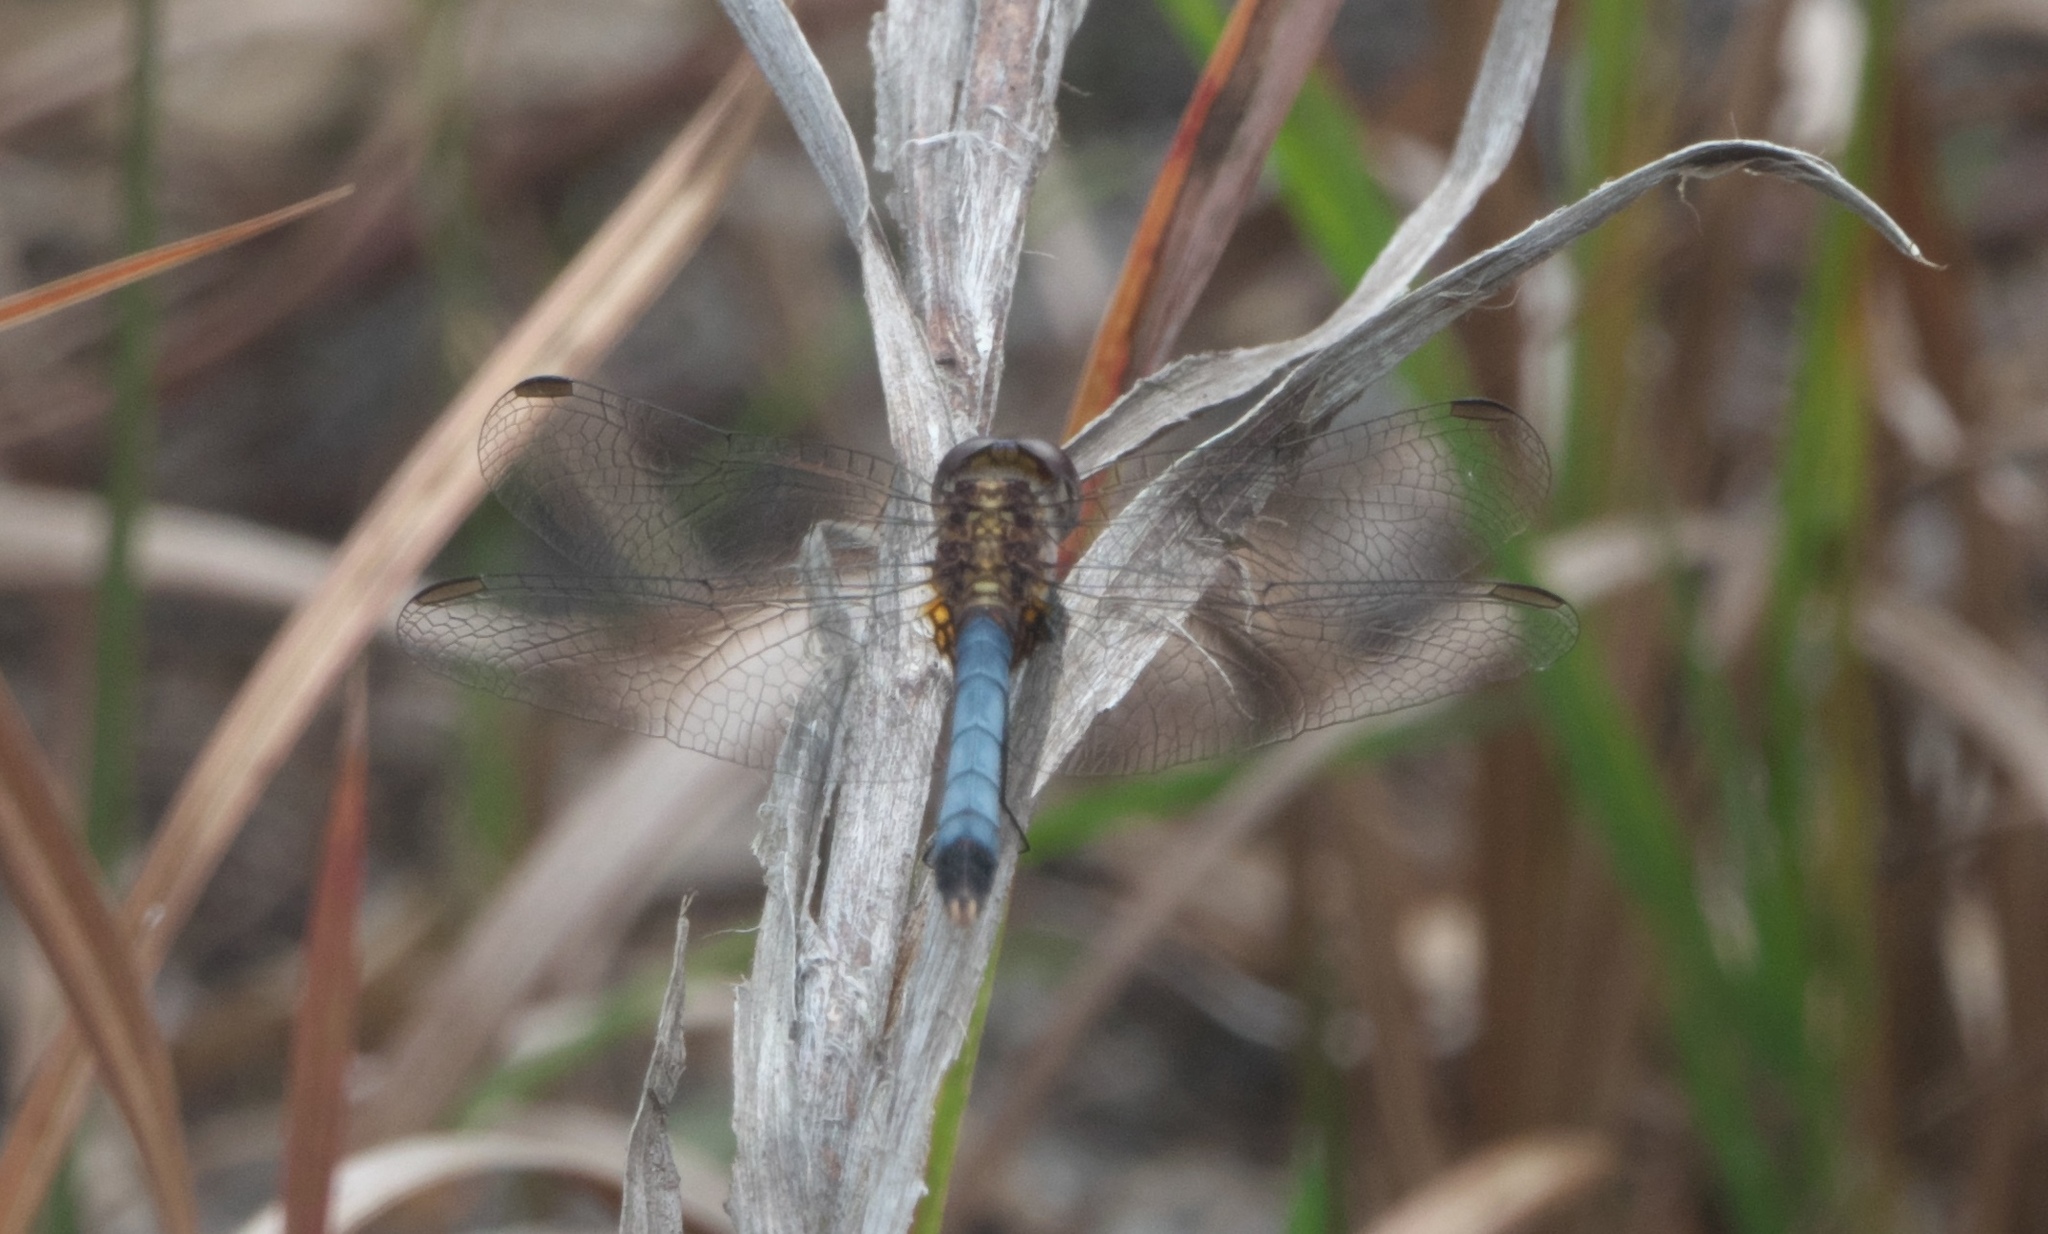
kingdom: Animalia
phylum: Arthropoda
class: Insecta
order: Odonata
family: Libellulidae
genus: Erythrodiplax
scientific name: Erythrodiplax minuscula
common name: Little blue dragonlet
